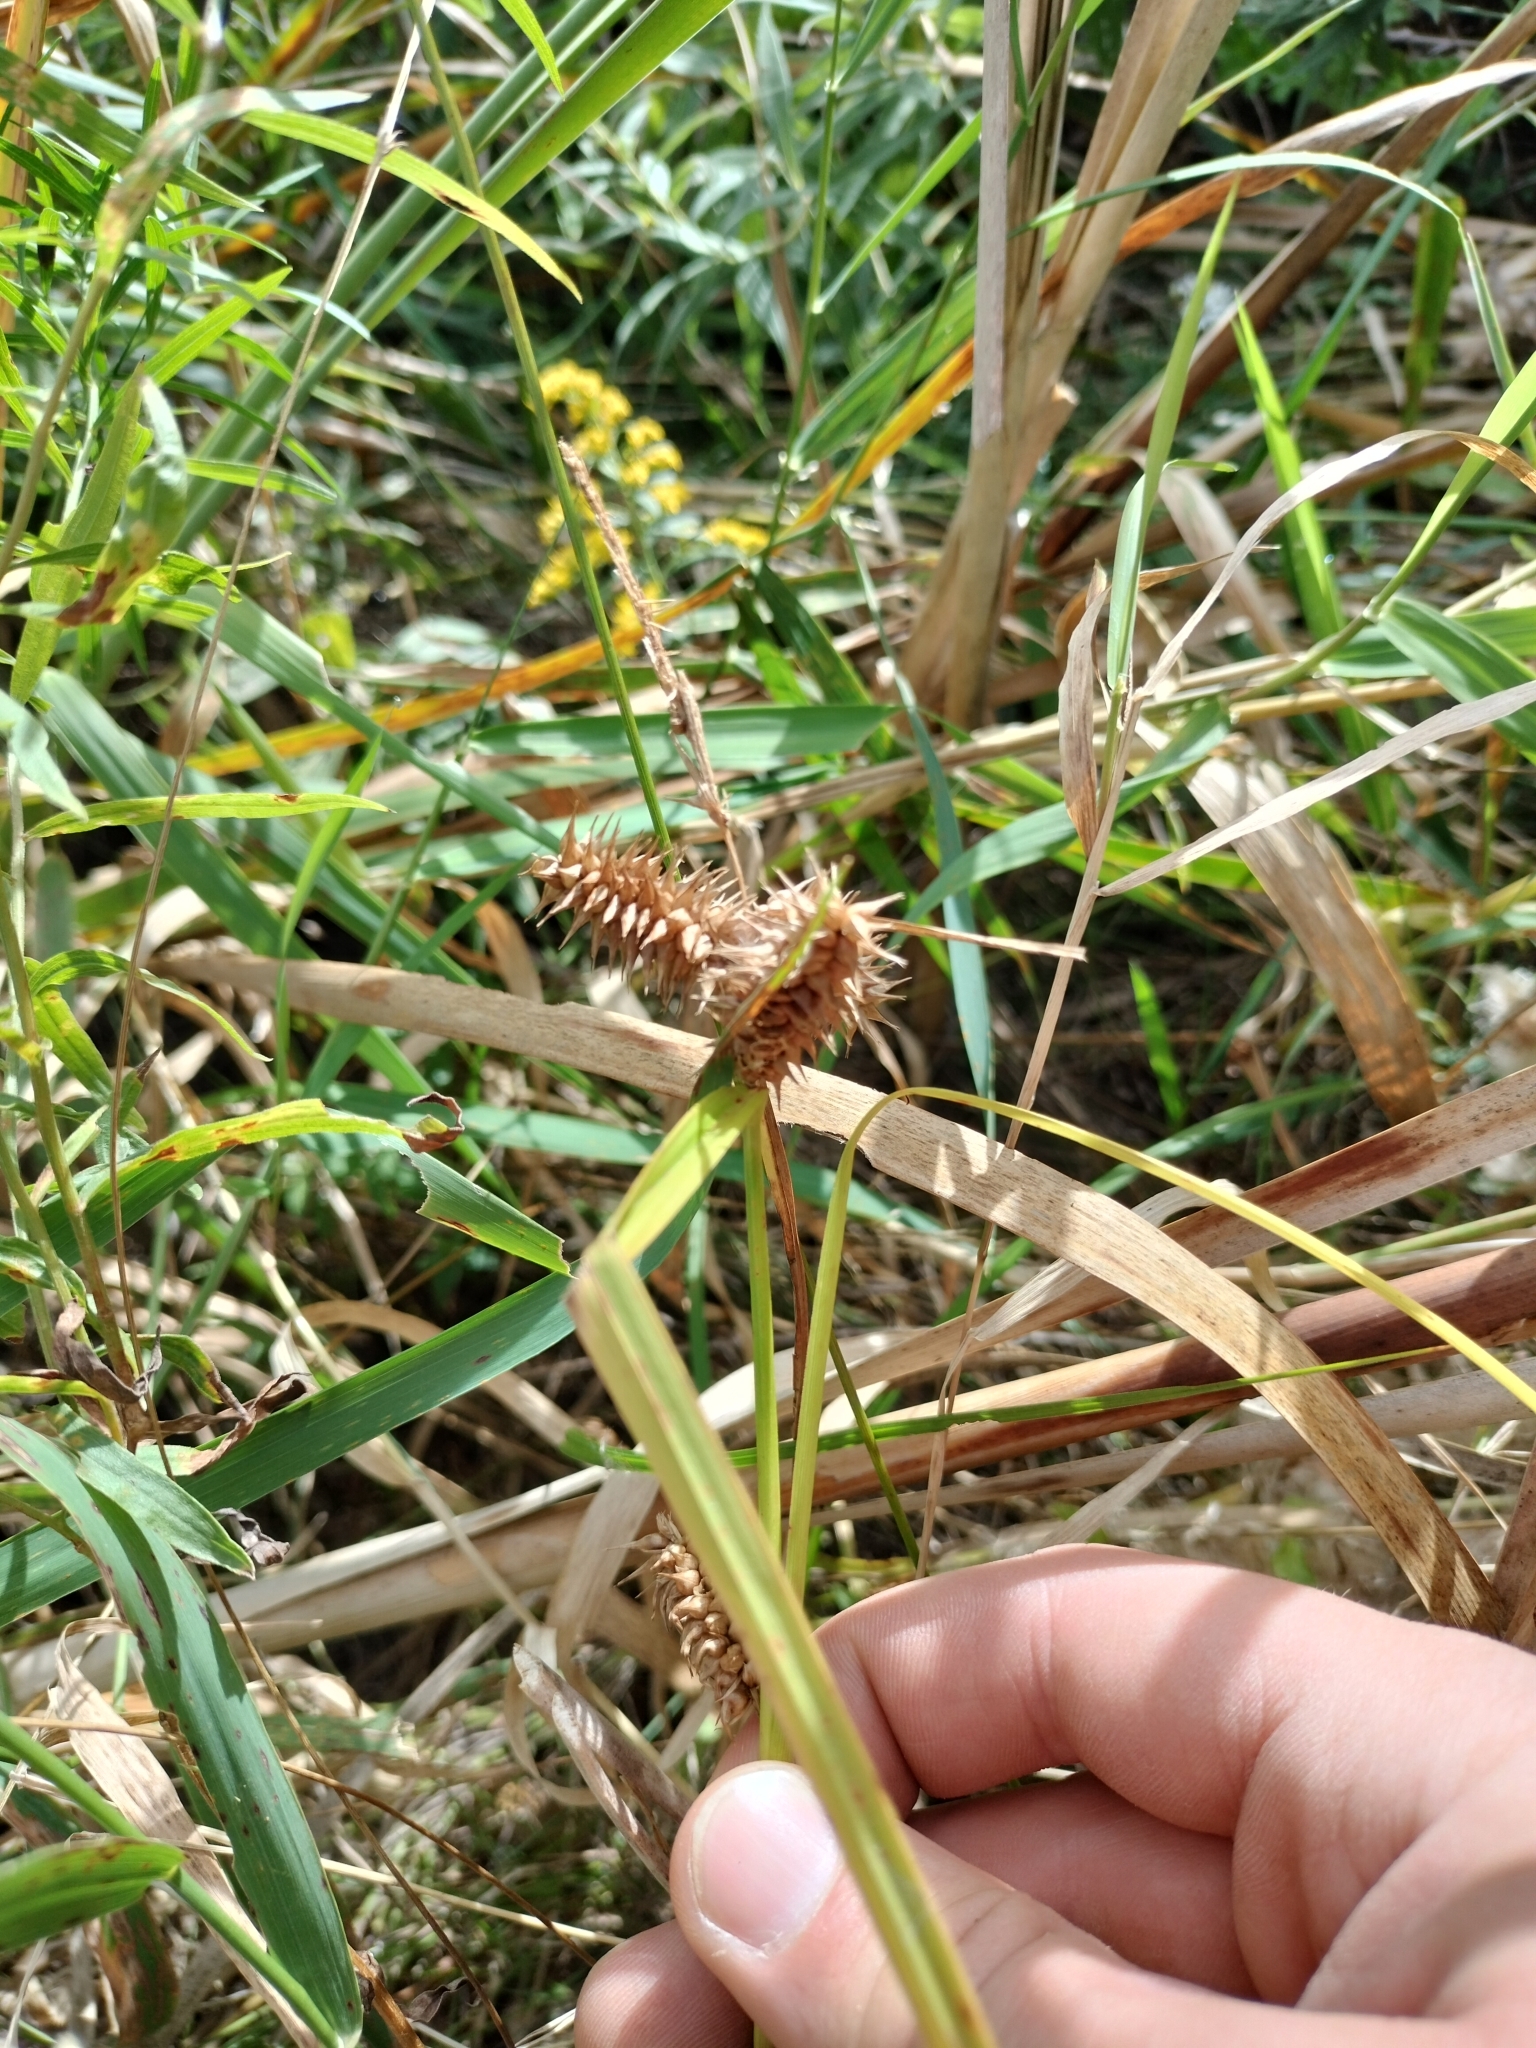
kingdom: Plantae
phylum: Tracheophyta
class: Liliopsida
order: Poales
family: Cyperaceae
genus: Carex
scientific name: Carex retrorsa
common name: Knot-sheath sedge
